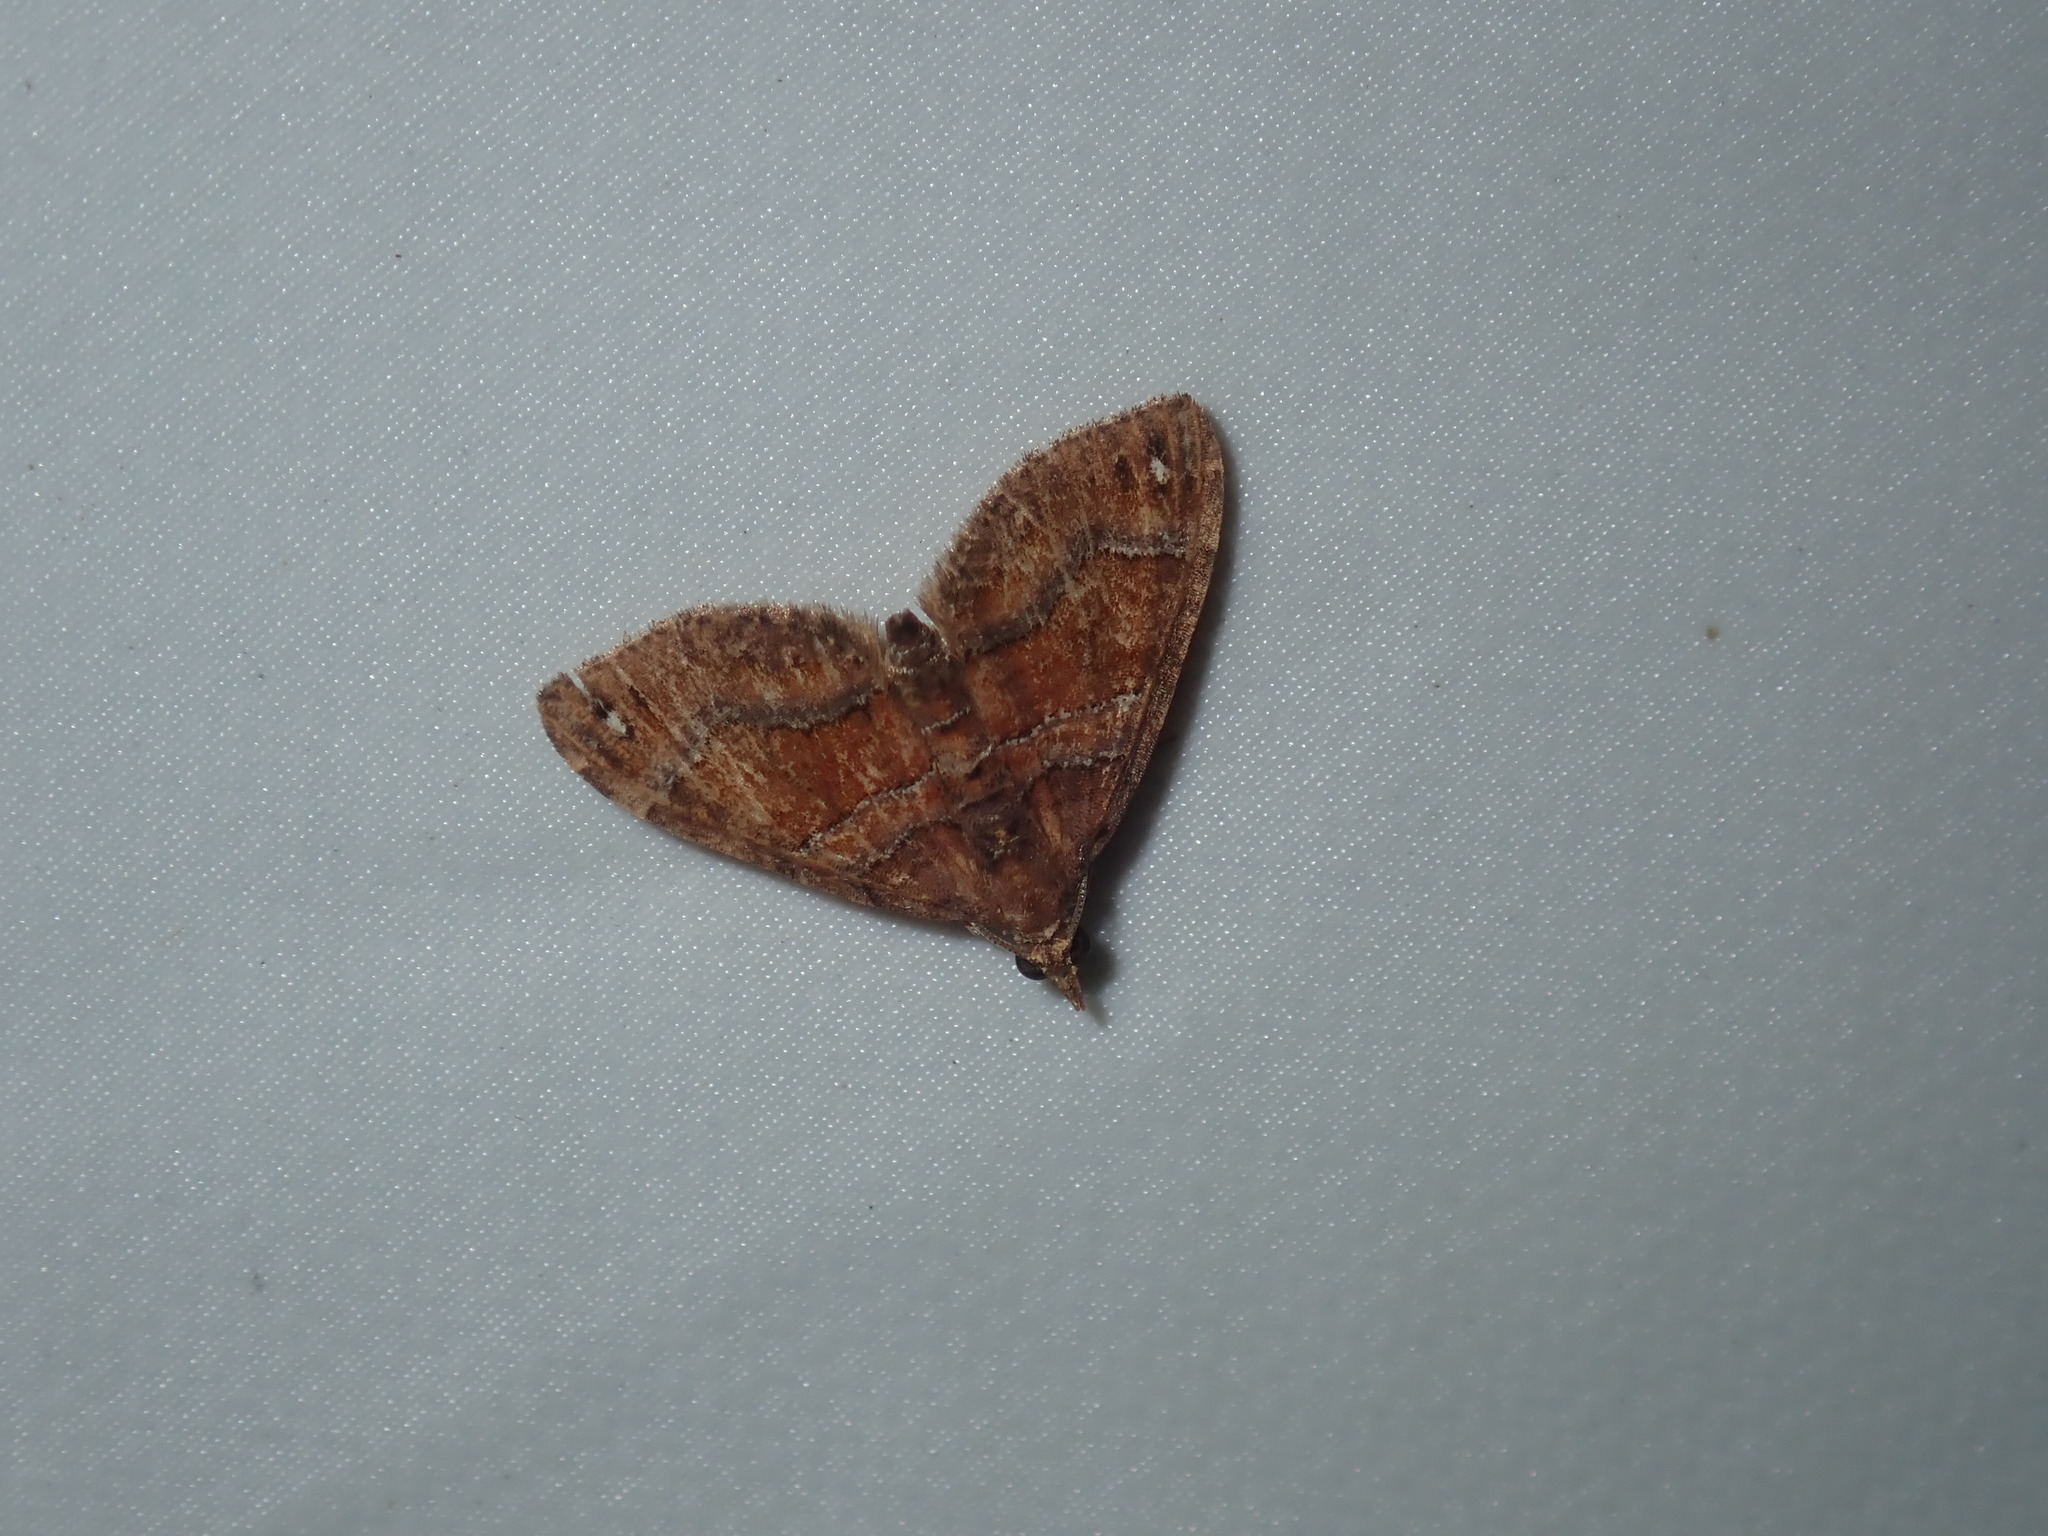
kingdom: Animalia
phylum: Arthropoda
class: Insecta
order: Lepidoptera
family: Geometridae
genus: Chaetolopha
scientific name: Chaetolopha emporias
